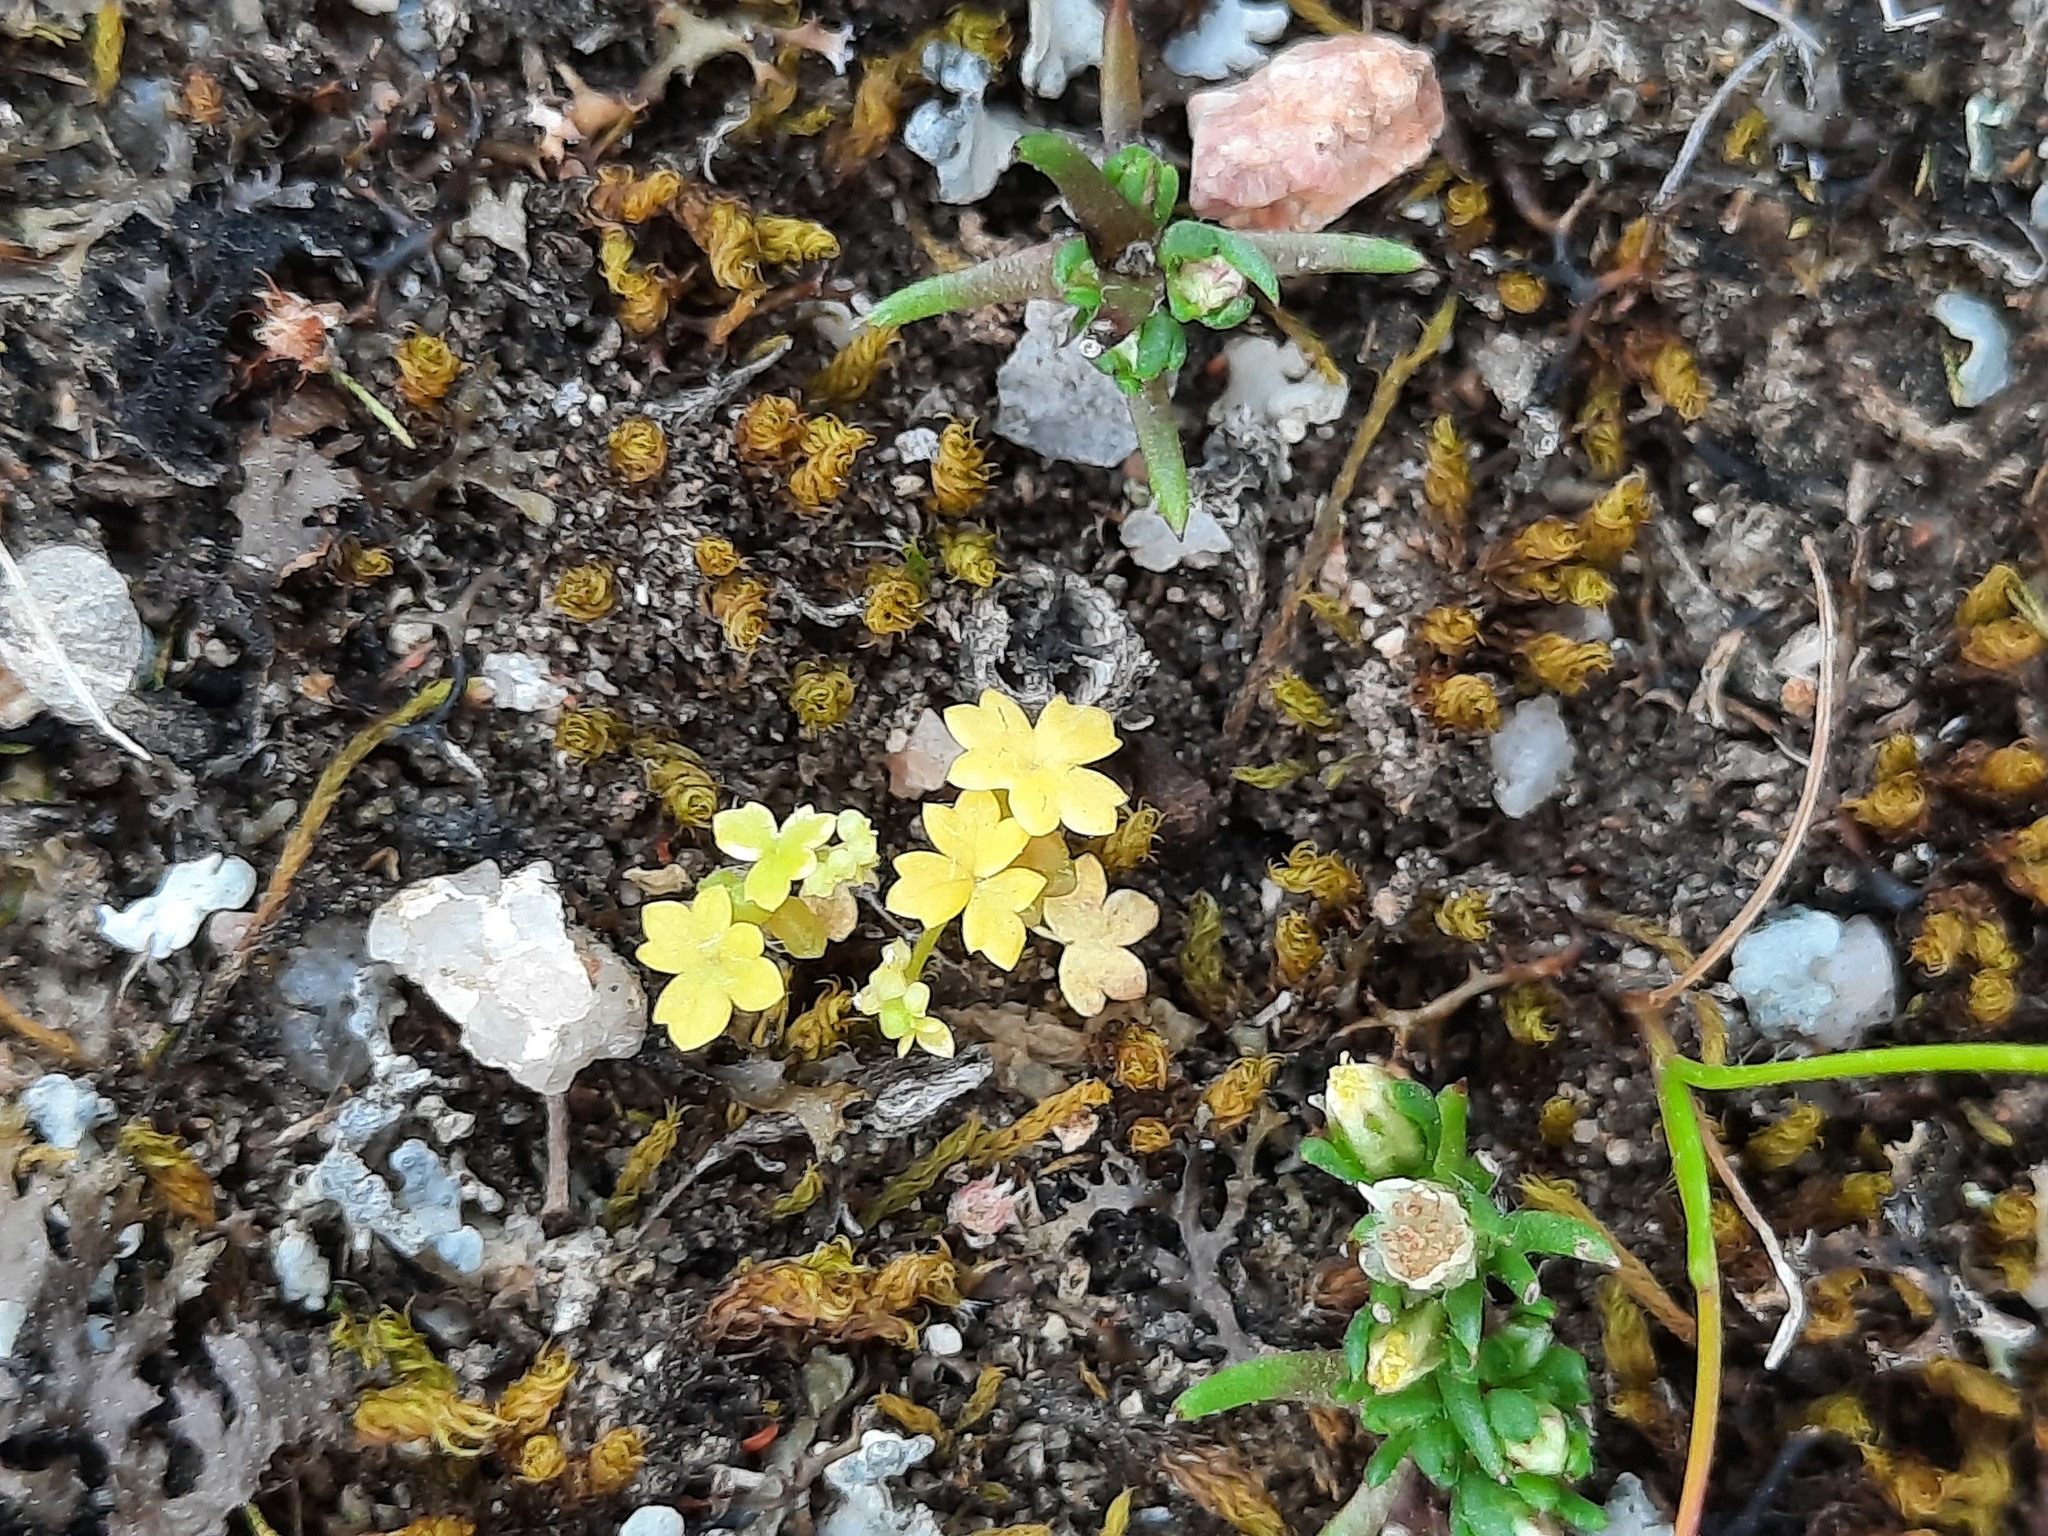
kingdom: Plantae
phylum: Tracheophyta
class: Magnoliopsida
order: Asterales
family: Asteraceae
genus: Hyalosperma
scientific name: Hyalosperma demissum
